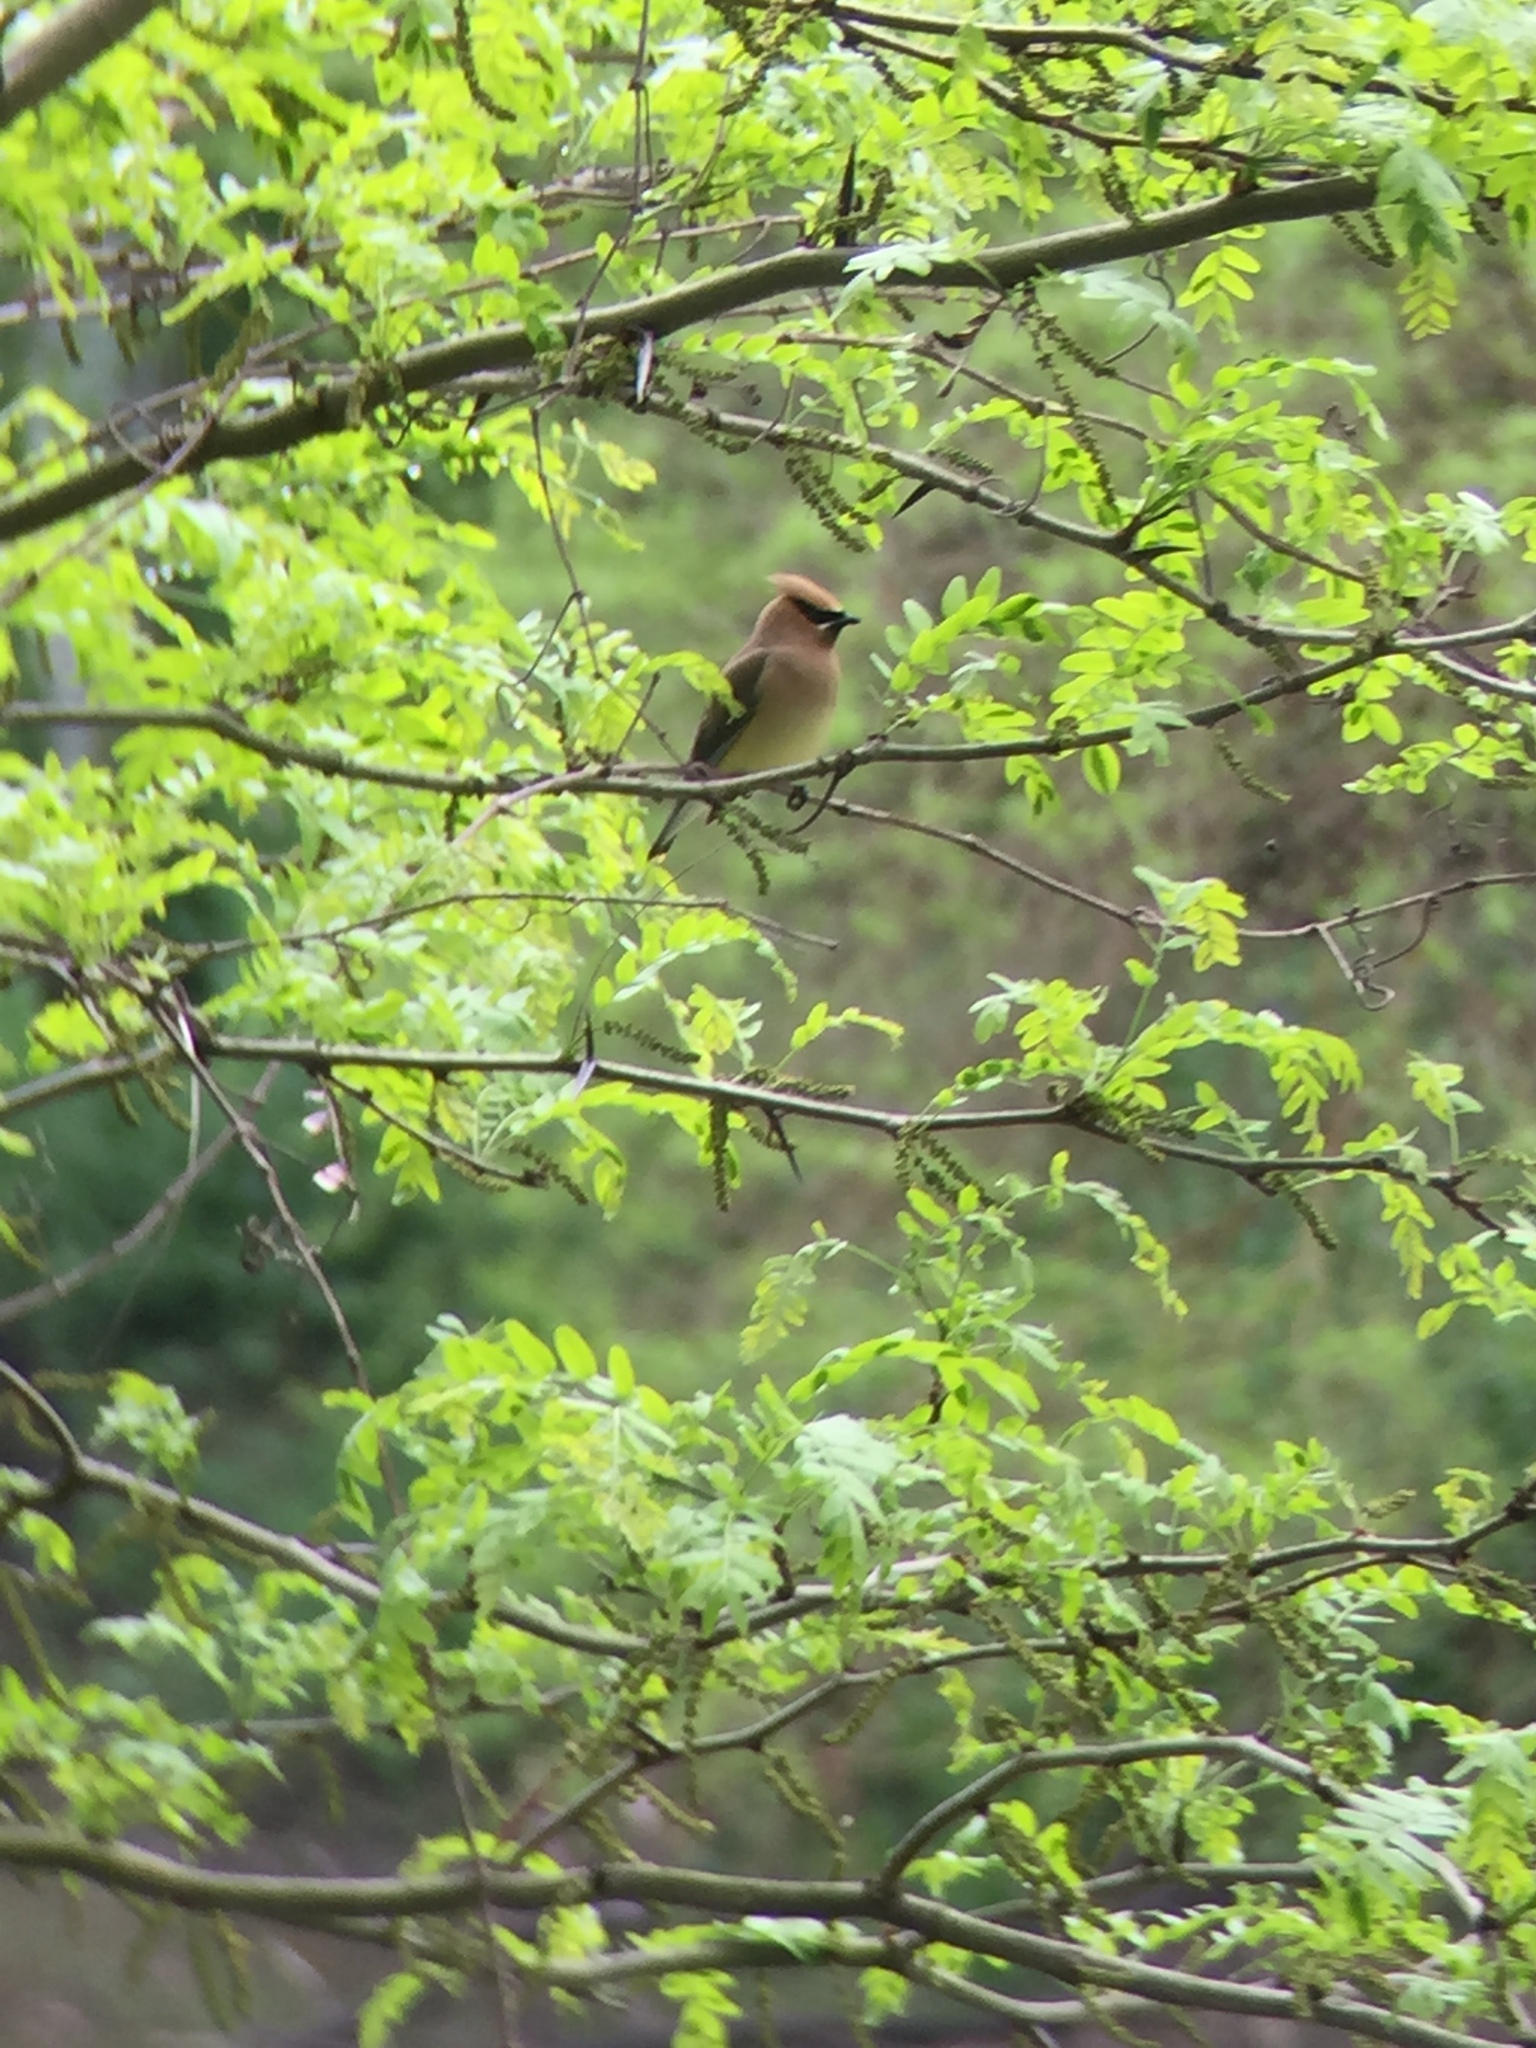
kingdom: Animalia
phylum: Chordata
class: Aves
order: Passeriformes
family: Bombycillidae
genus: Bombycilla
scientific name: Bombycilla cedrorum
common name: Cedar waxwing
